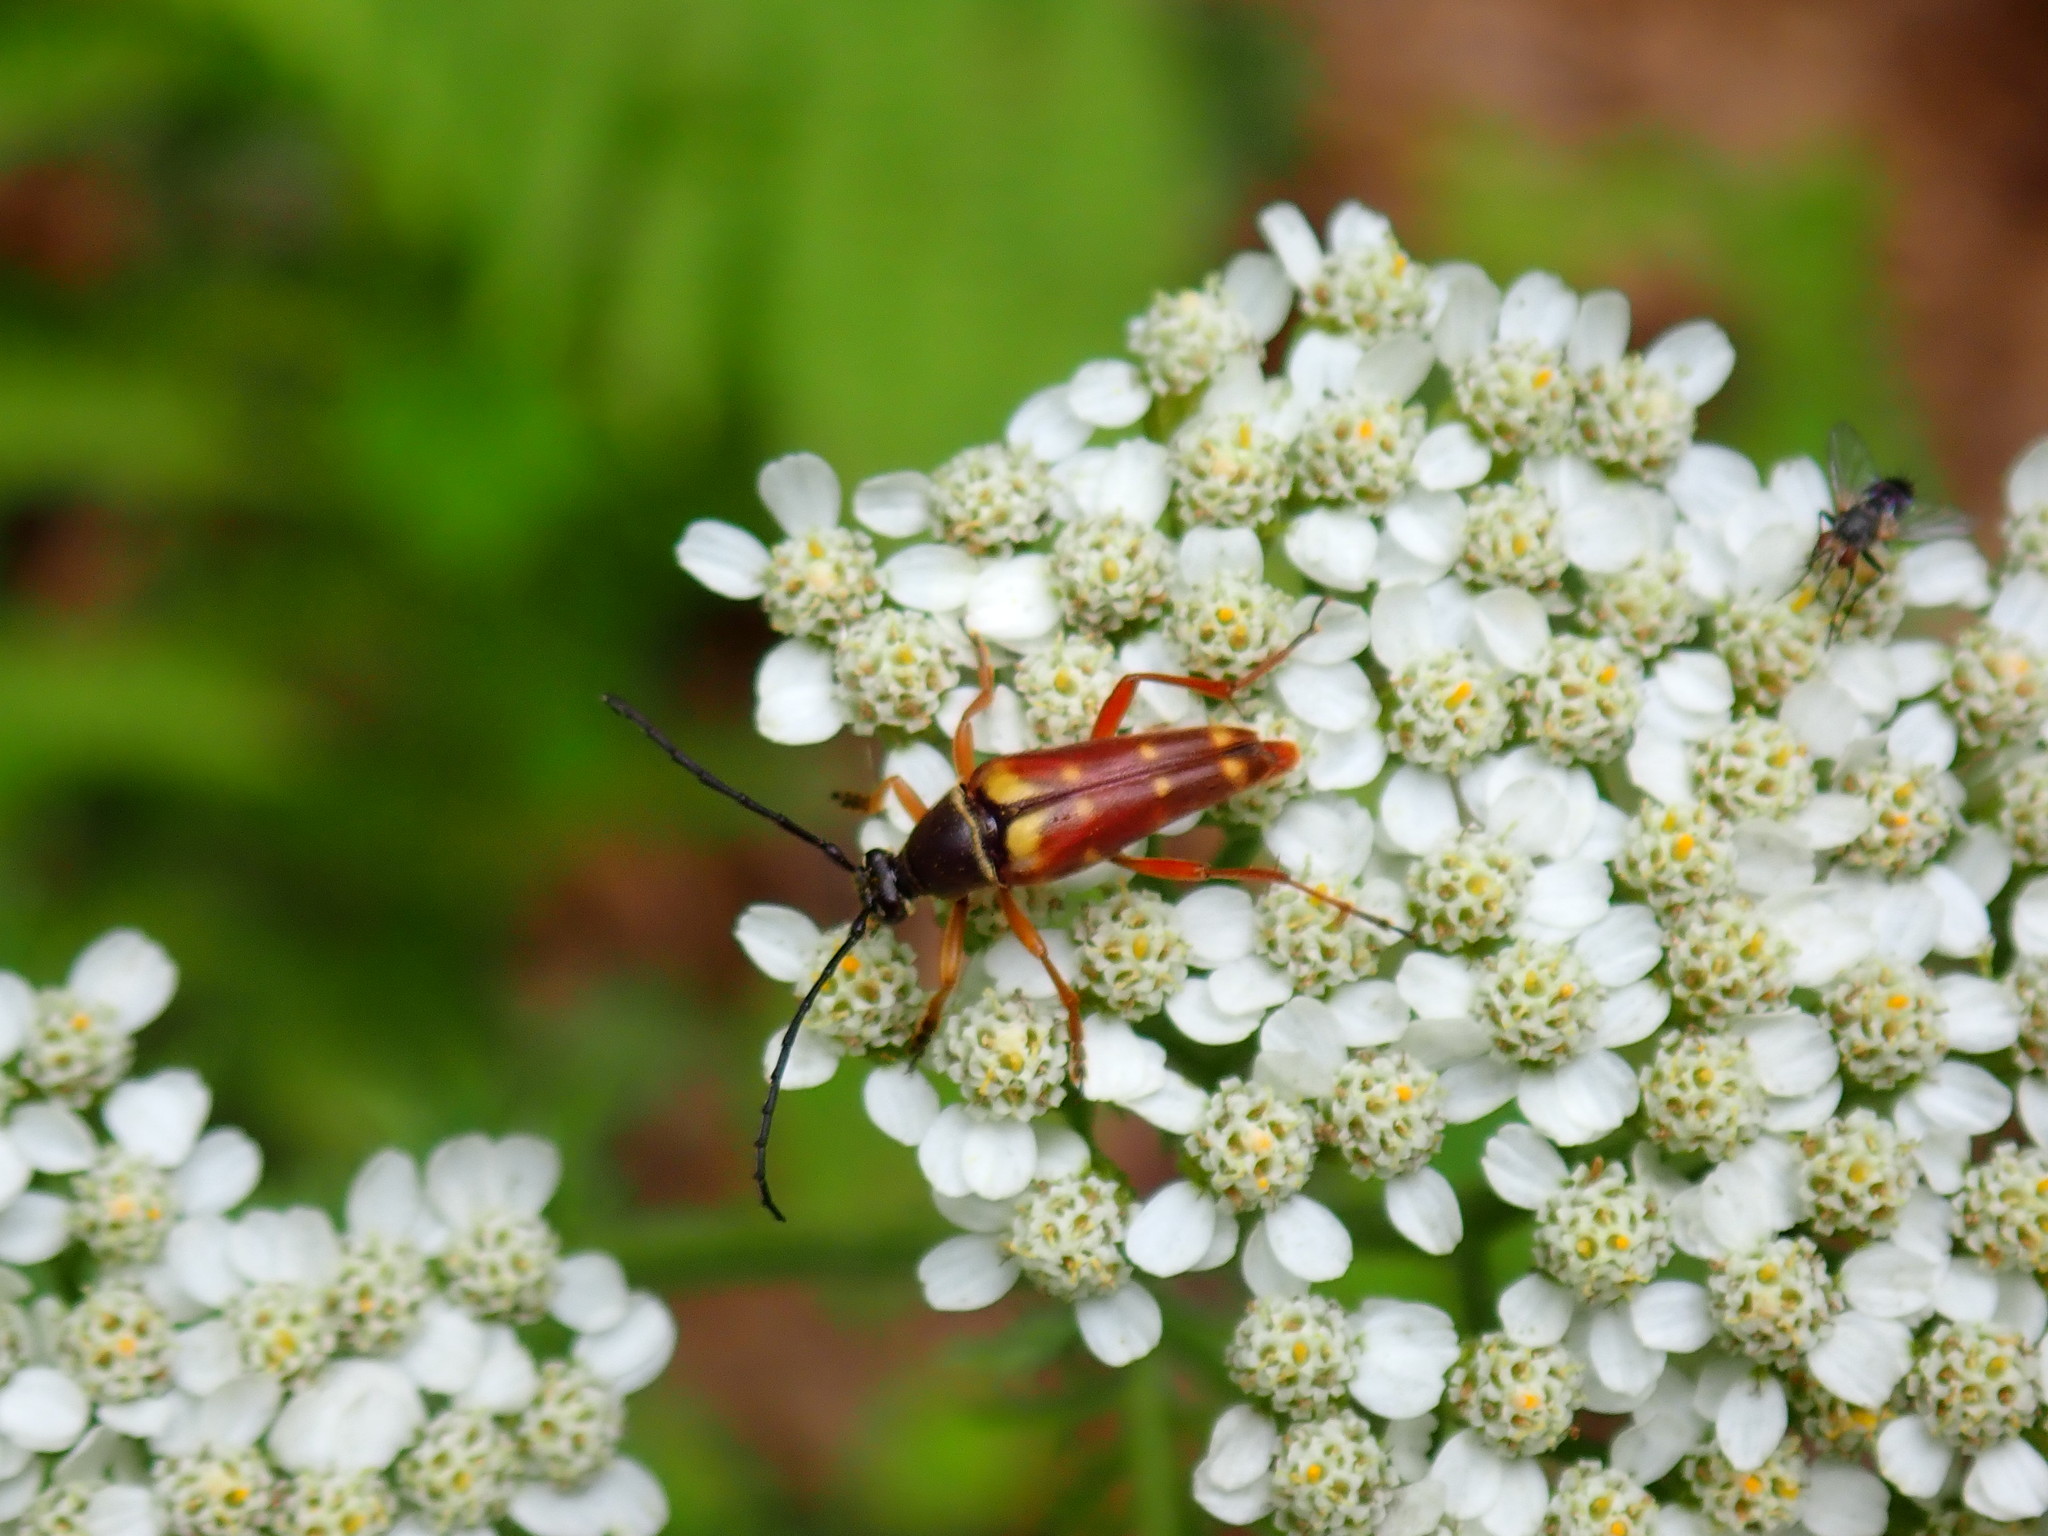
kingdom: Animalia
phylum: Arthropoda
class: Insecta
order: Coleoptera
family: Cerambycidae
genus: Typocerus
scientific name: Typocerus velutinus
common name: Banded longhorn beetle
